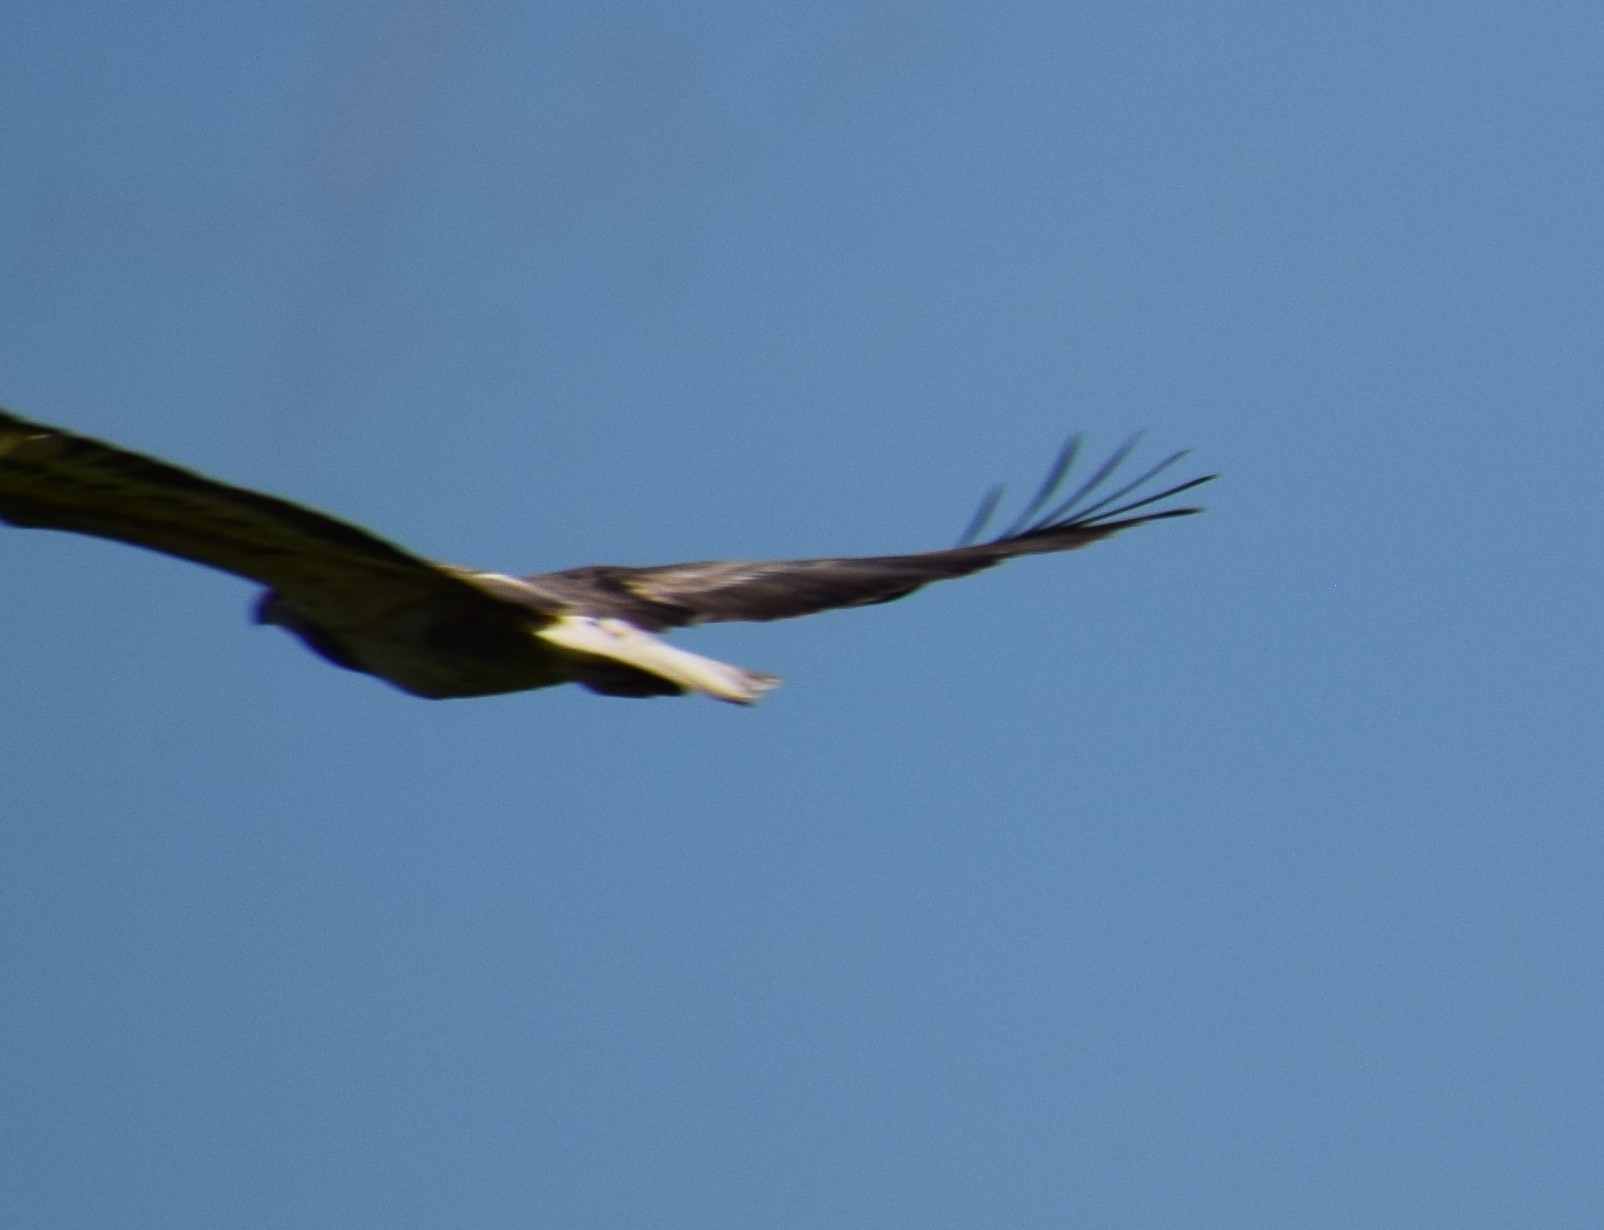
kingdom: Animalia
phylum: Chordata
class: Aves
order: Accipitriformes
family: Accipitridae
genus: Haliaeetus
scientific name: Haliaeetus leucogaster
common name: White-bellied sea eagle
